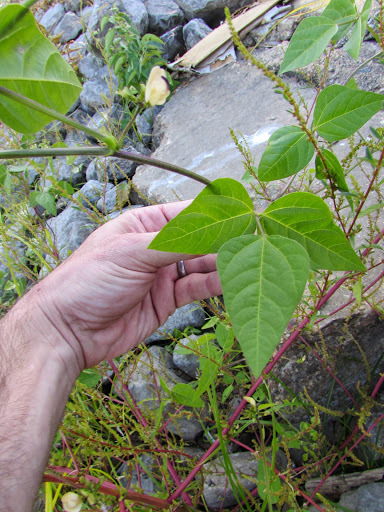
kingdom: Plantae
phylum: Tracheophyta
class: Magnoliopsida
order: Fabales
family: Fabaceae
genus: Strophostyles
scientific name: Strophostyles helvola
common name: Trailing wild bean
